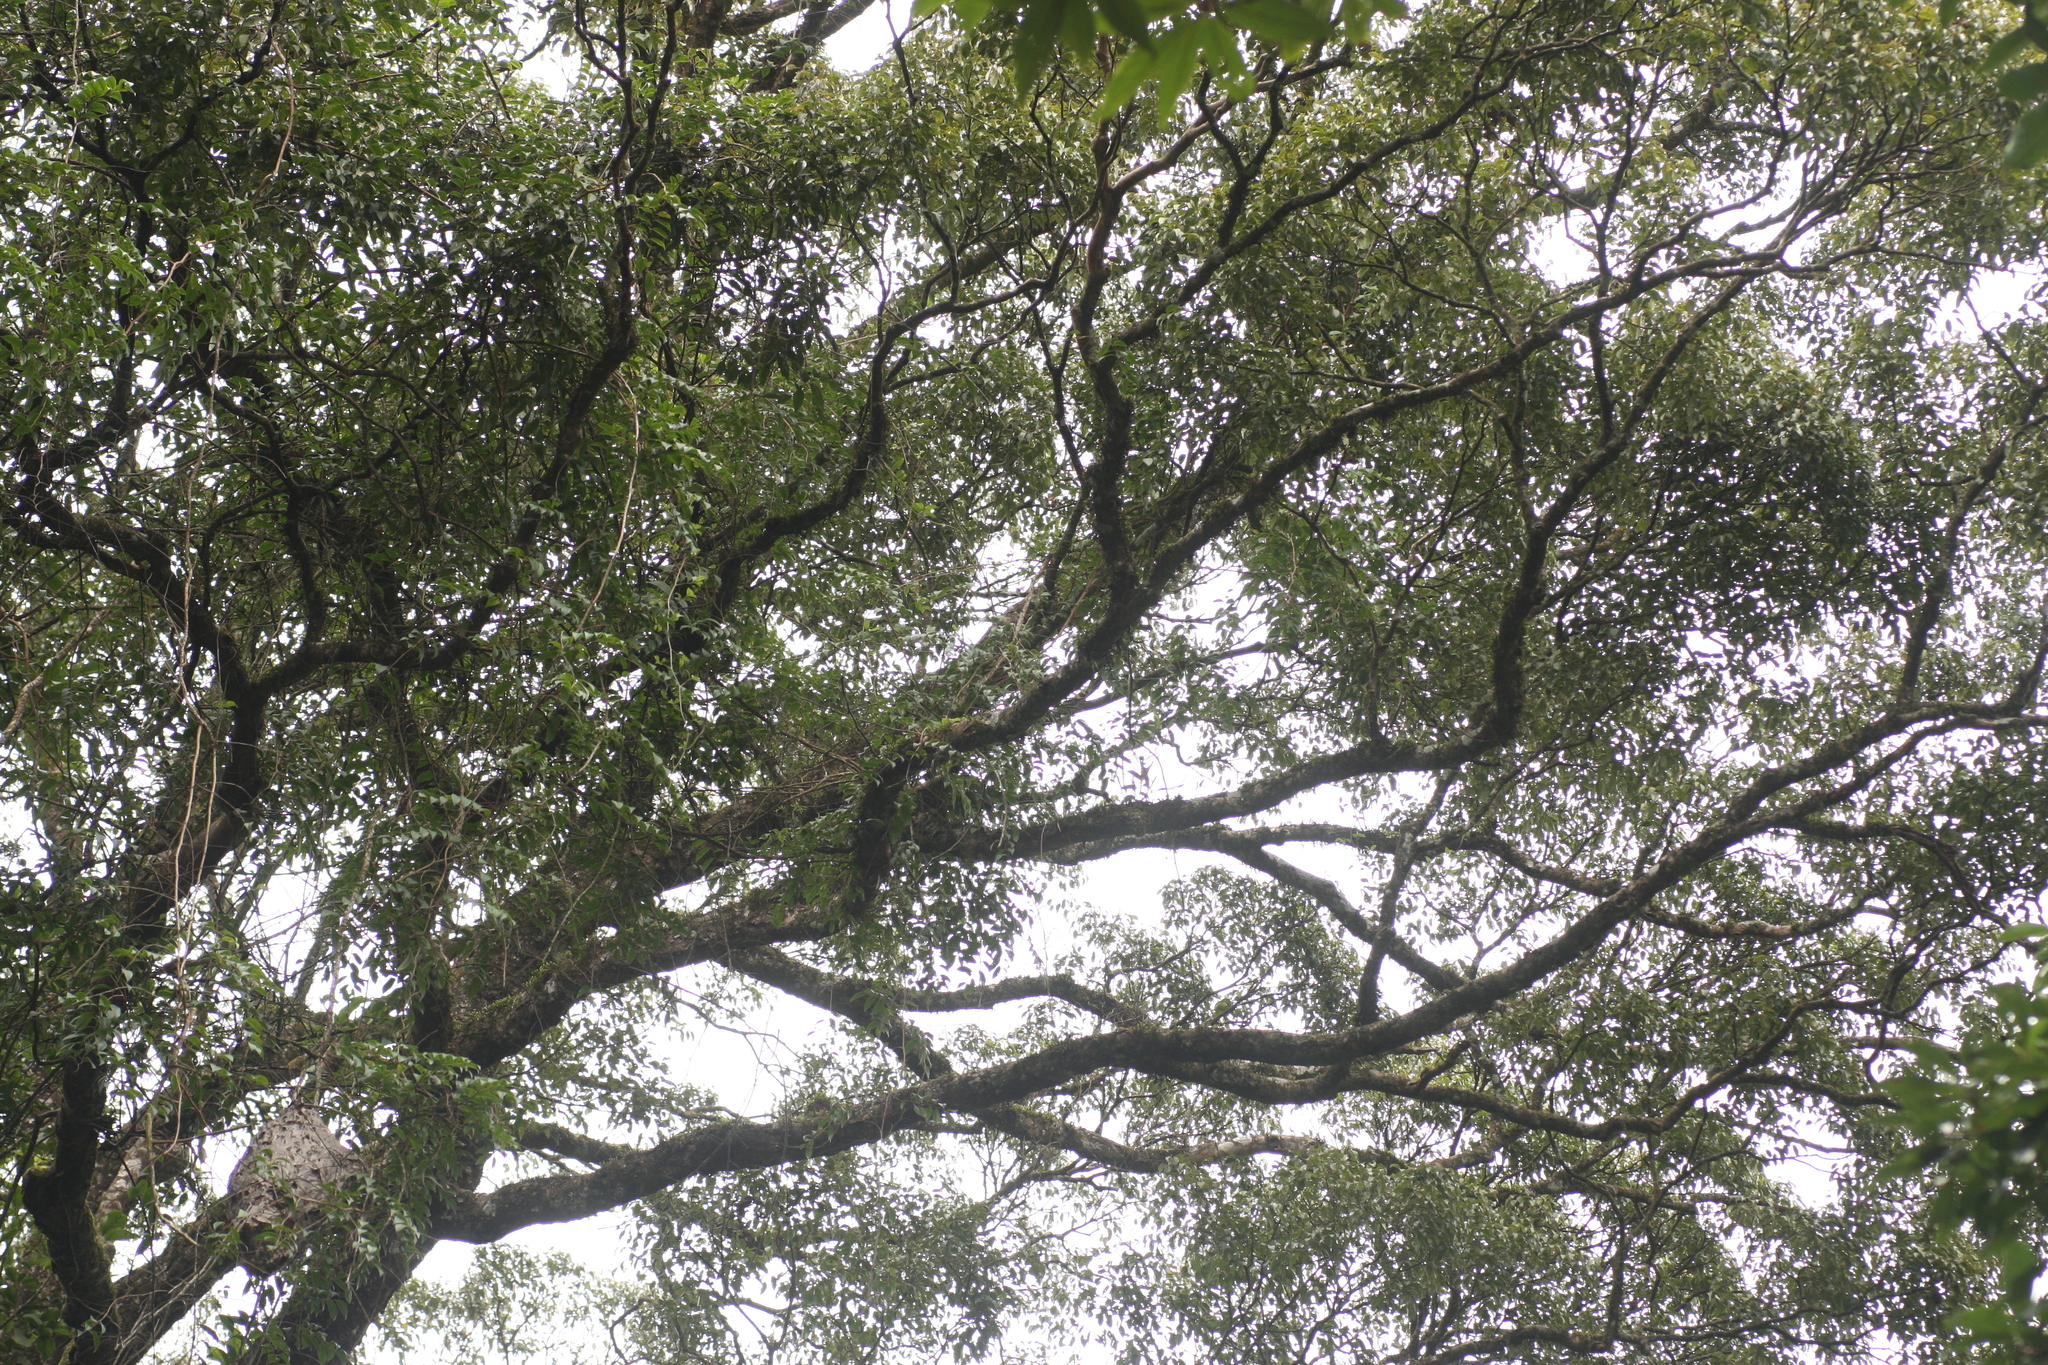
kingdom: Plantae
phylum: Tracheophyta
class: Magnoliopsida
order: Myrtales
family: Myrtaceae
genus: Syzygium
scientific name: Syzygium densiflorum
